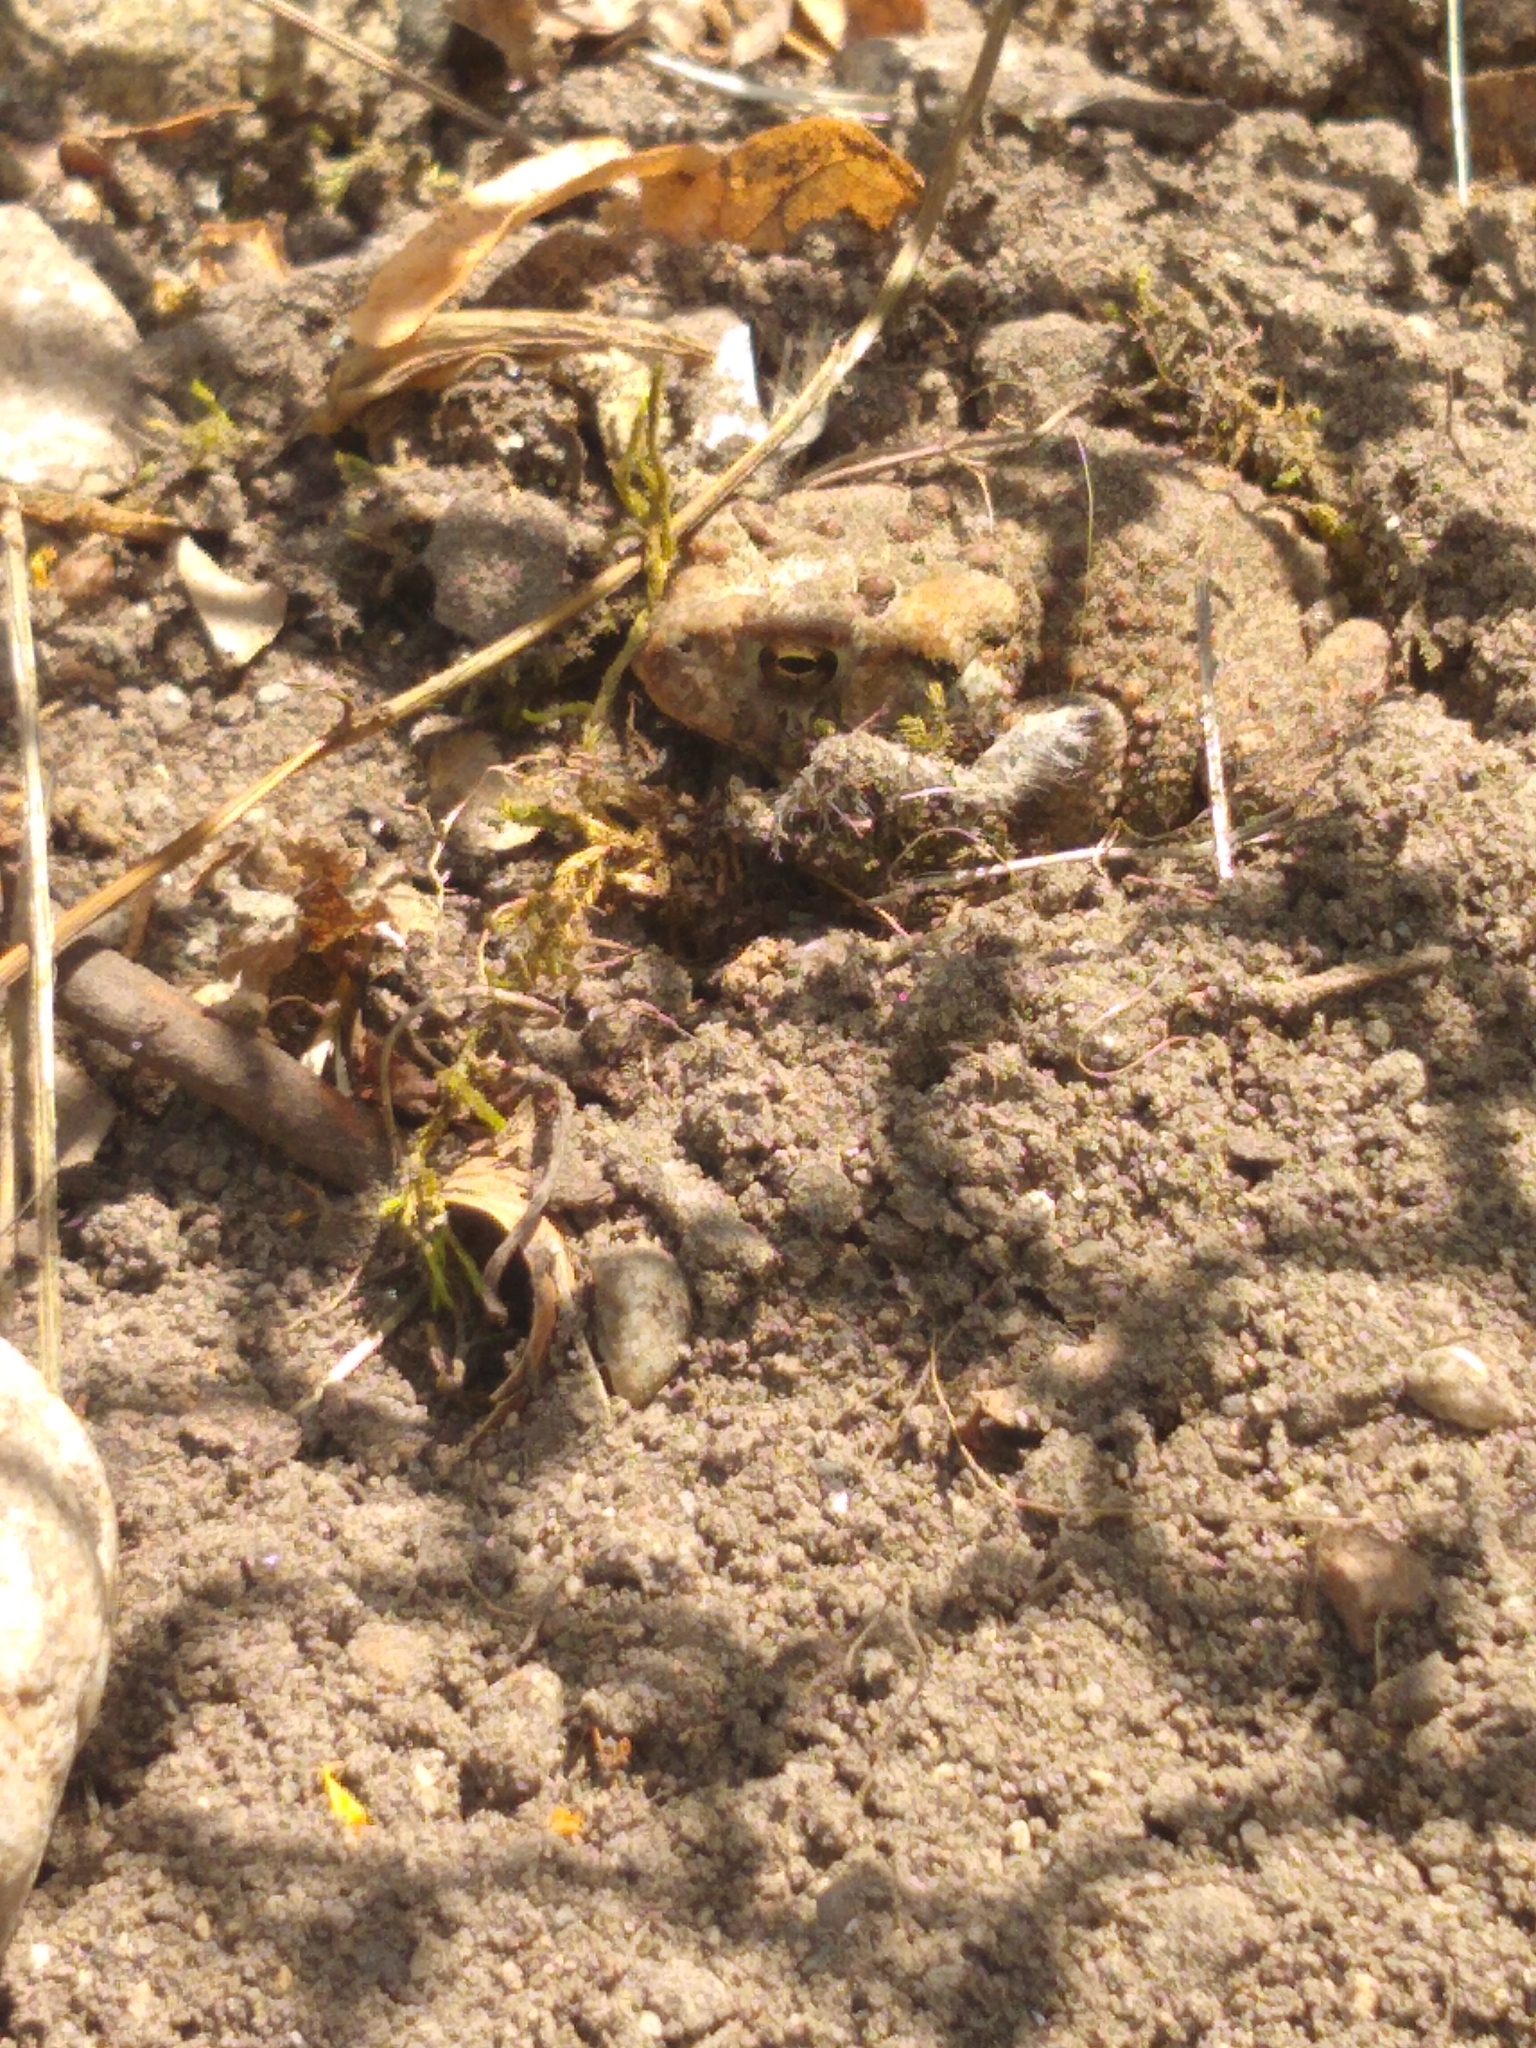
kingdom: Animalia
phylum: Chordata
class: Amphibia
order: Anura
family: Bufonidae
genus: Anaxyrus
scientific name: Anaxyrus americanus
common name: American toad
